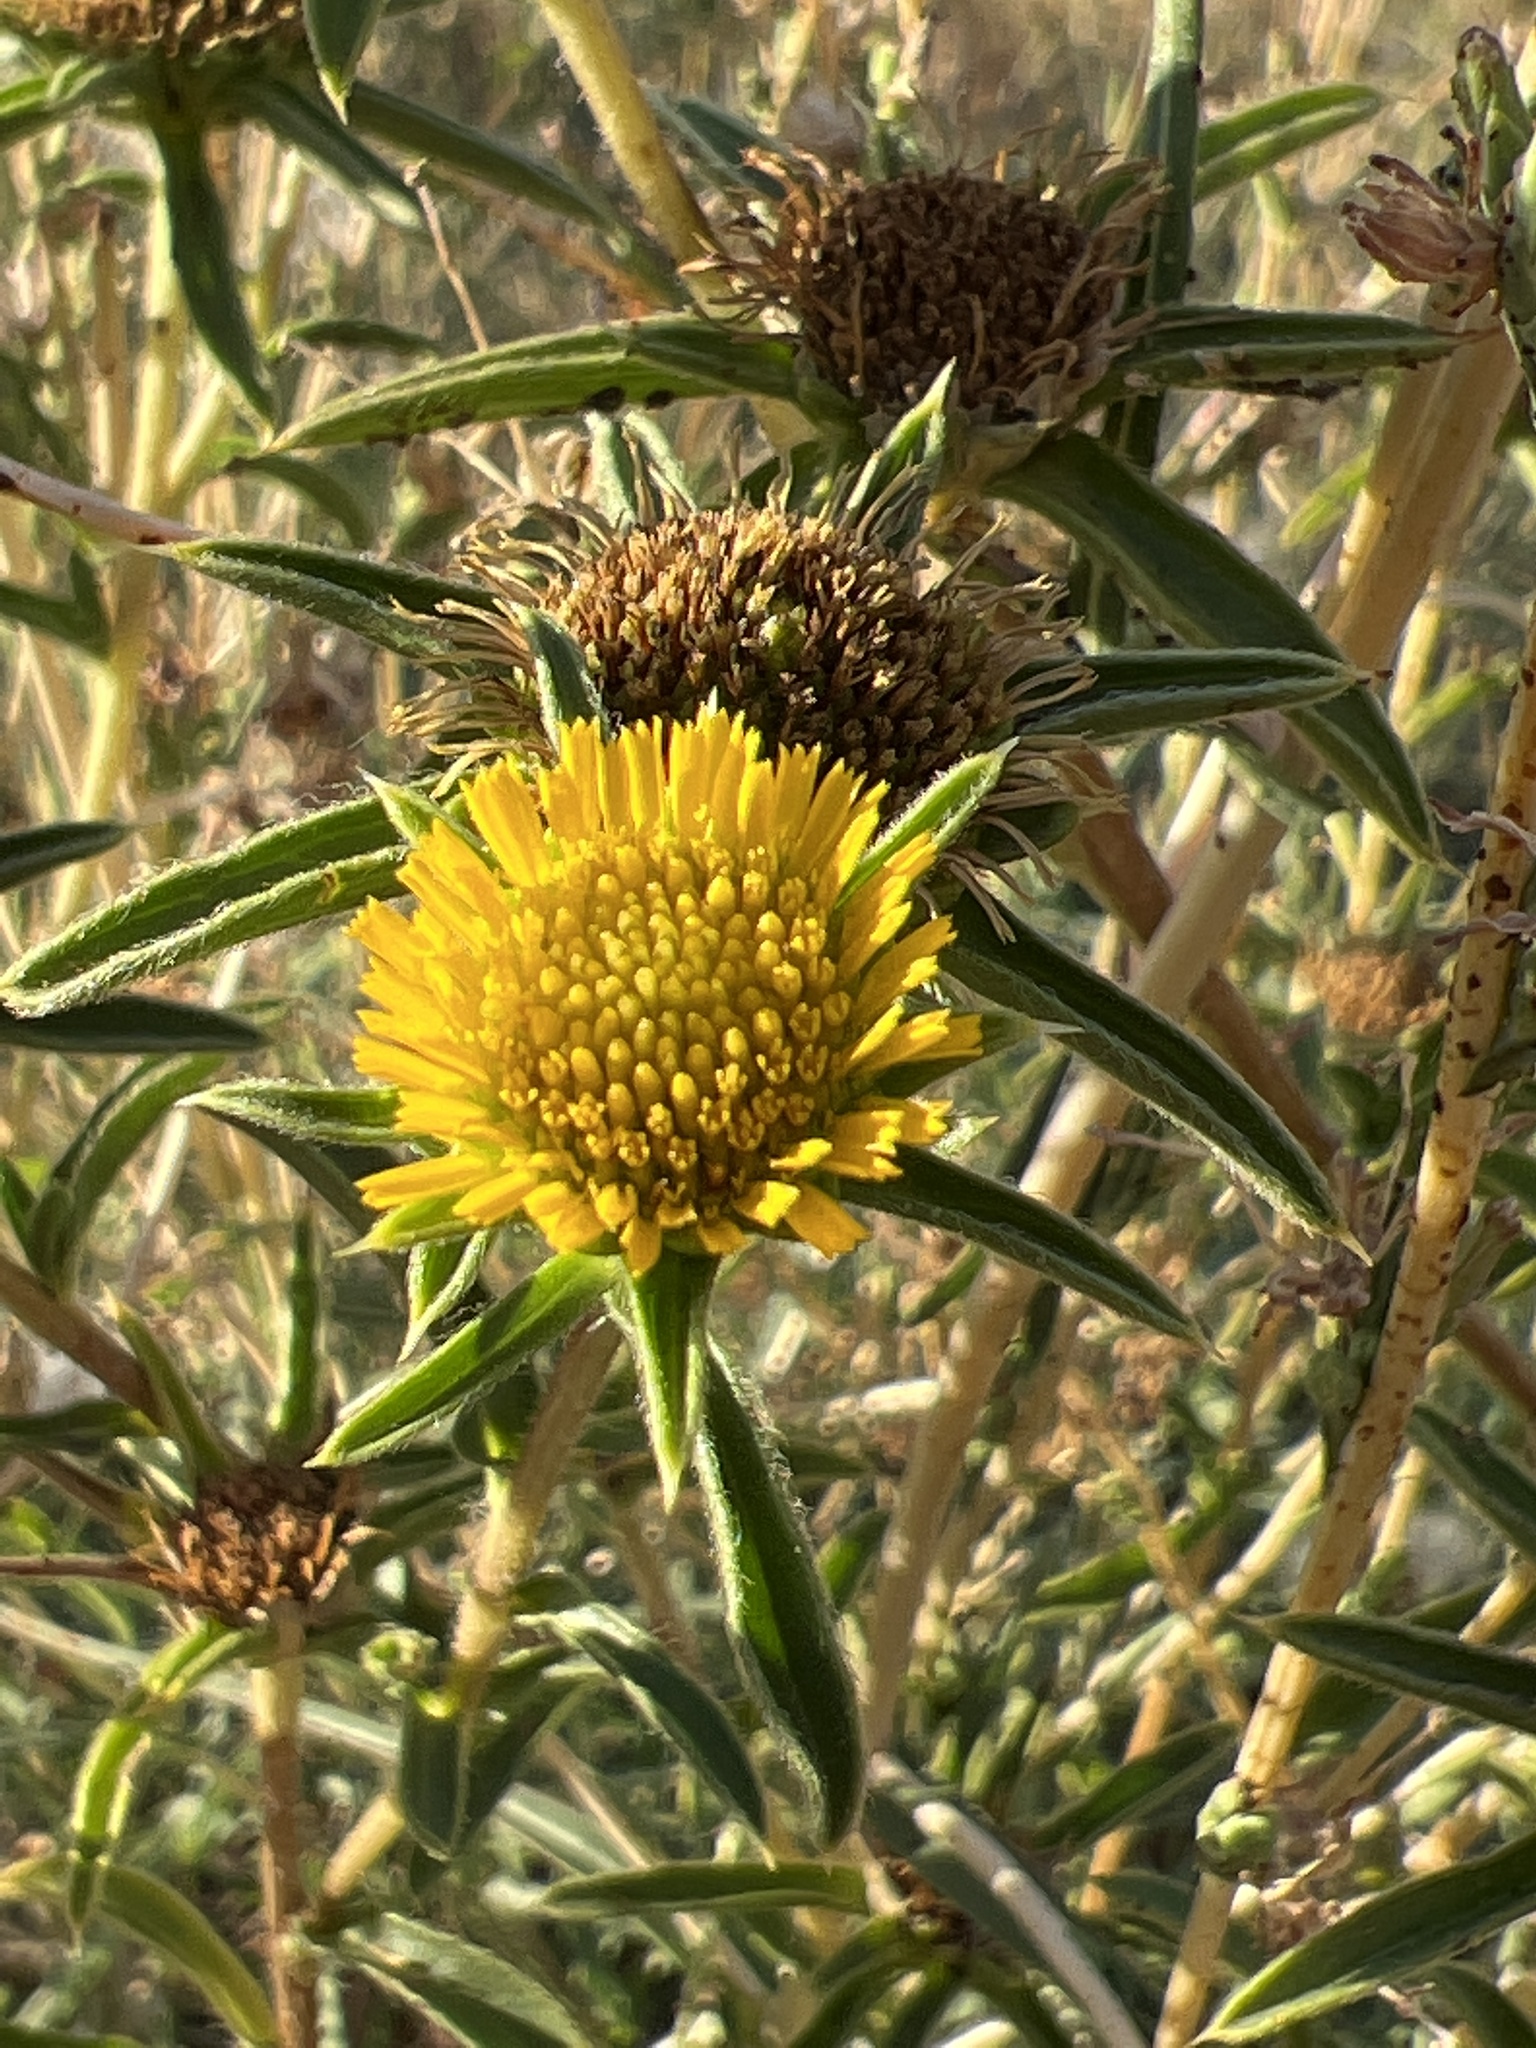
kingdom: Plantae
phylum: Tracheophyta
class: Magnoliopsida
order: Asterales
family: Asteraceae
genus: Pallenis
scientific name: Pallenis spinosa
